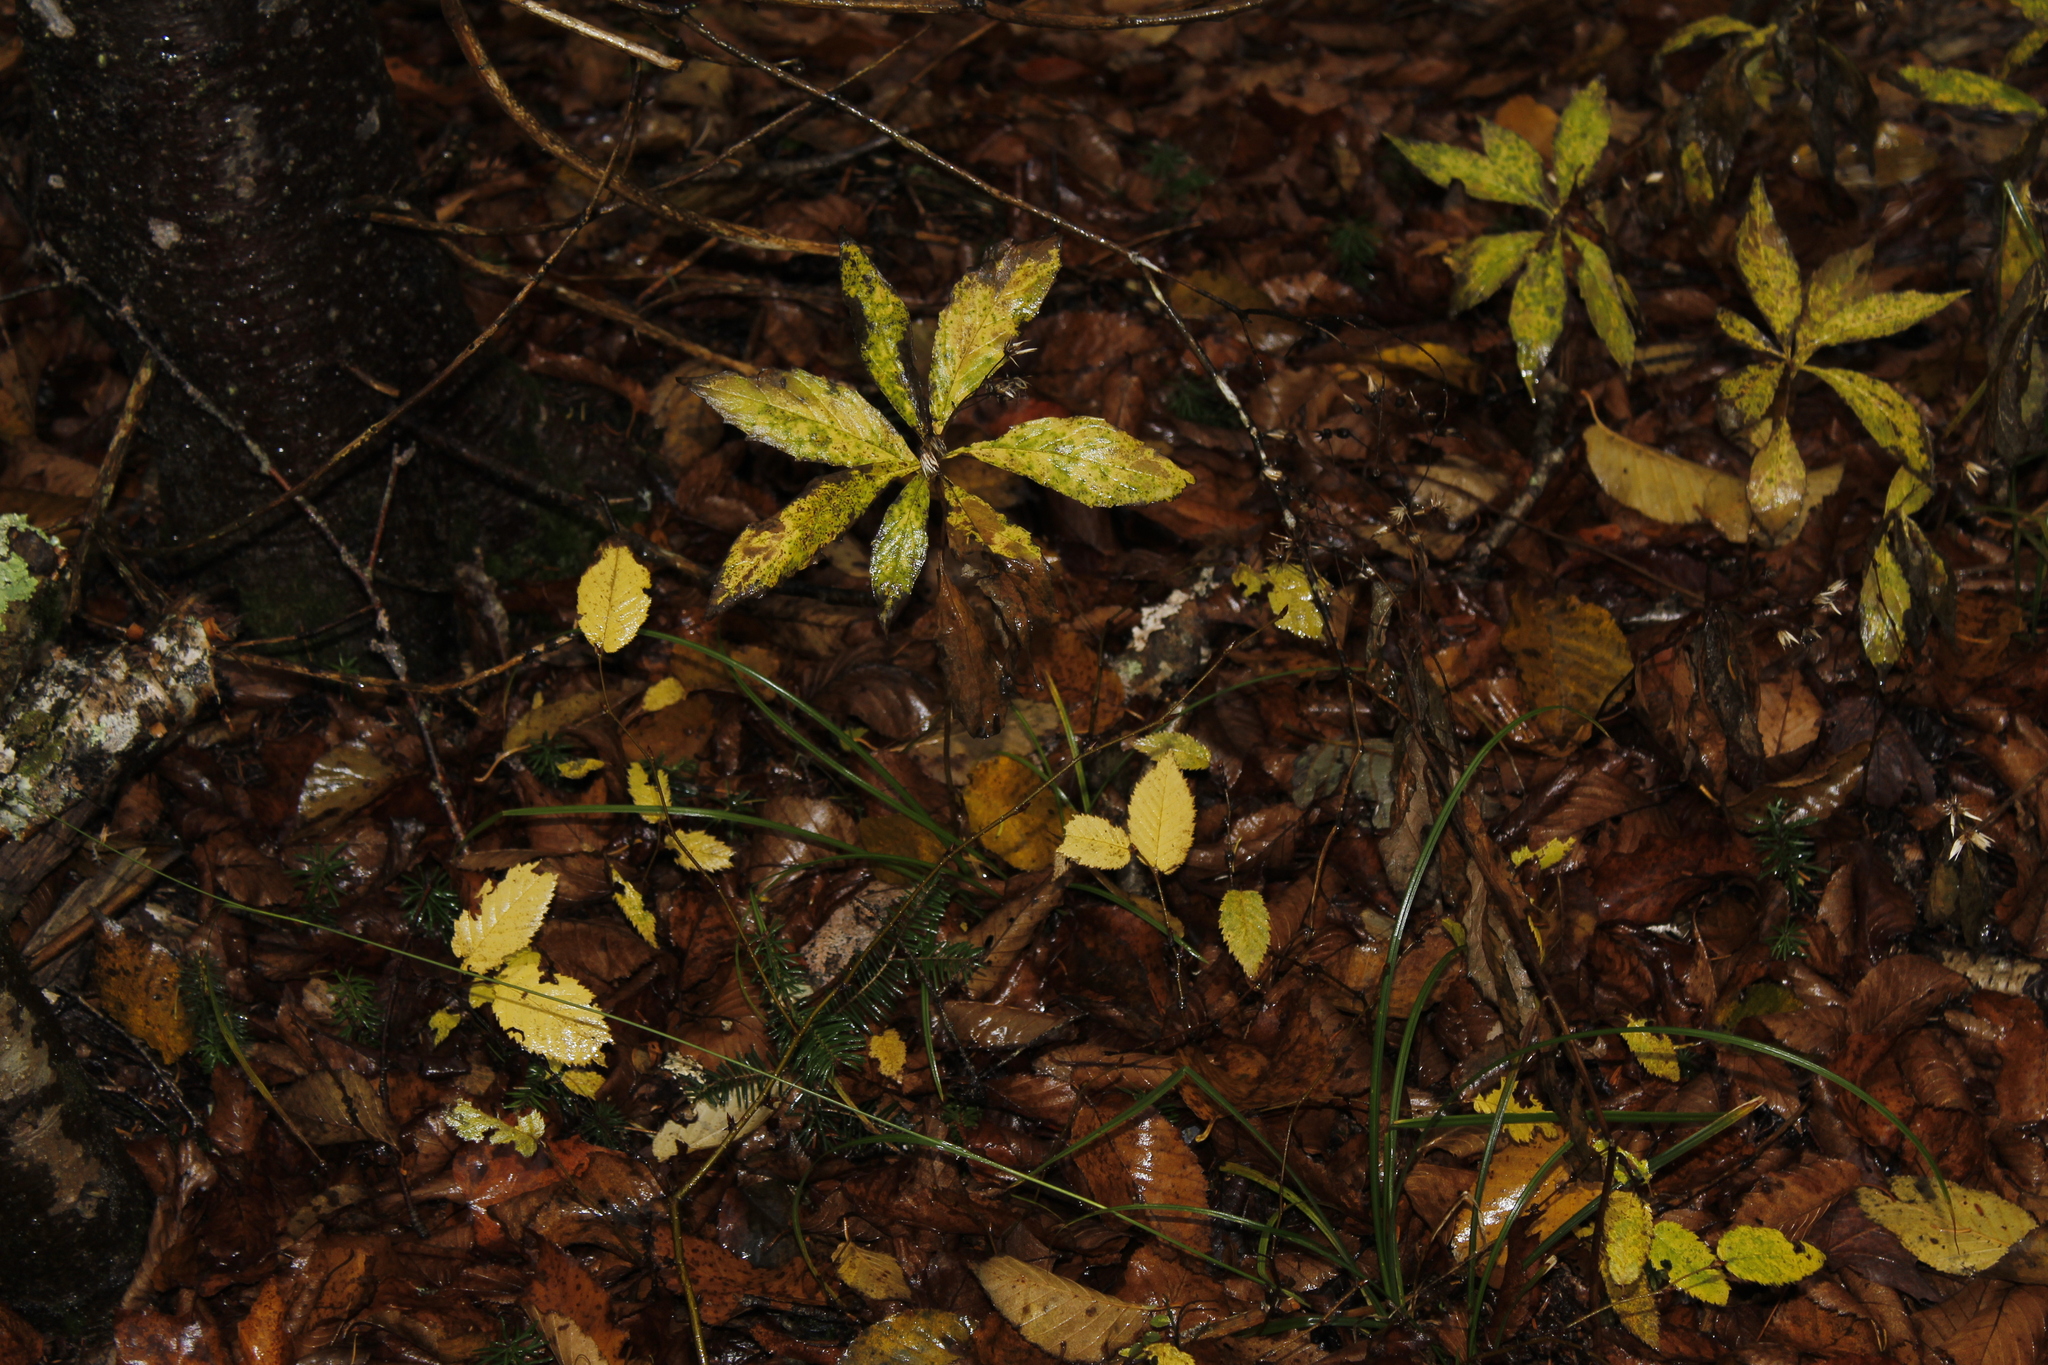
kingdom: Plantae
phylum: Tracheophyta
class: Magnoliopsida
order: Asterales
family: Asteraceae
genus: Oclemena
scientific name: Oclemena acuminata
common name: Mountain aster
